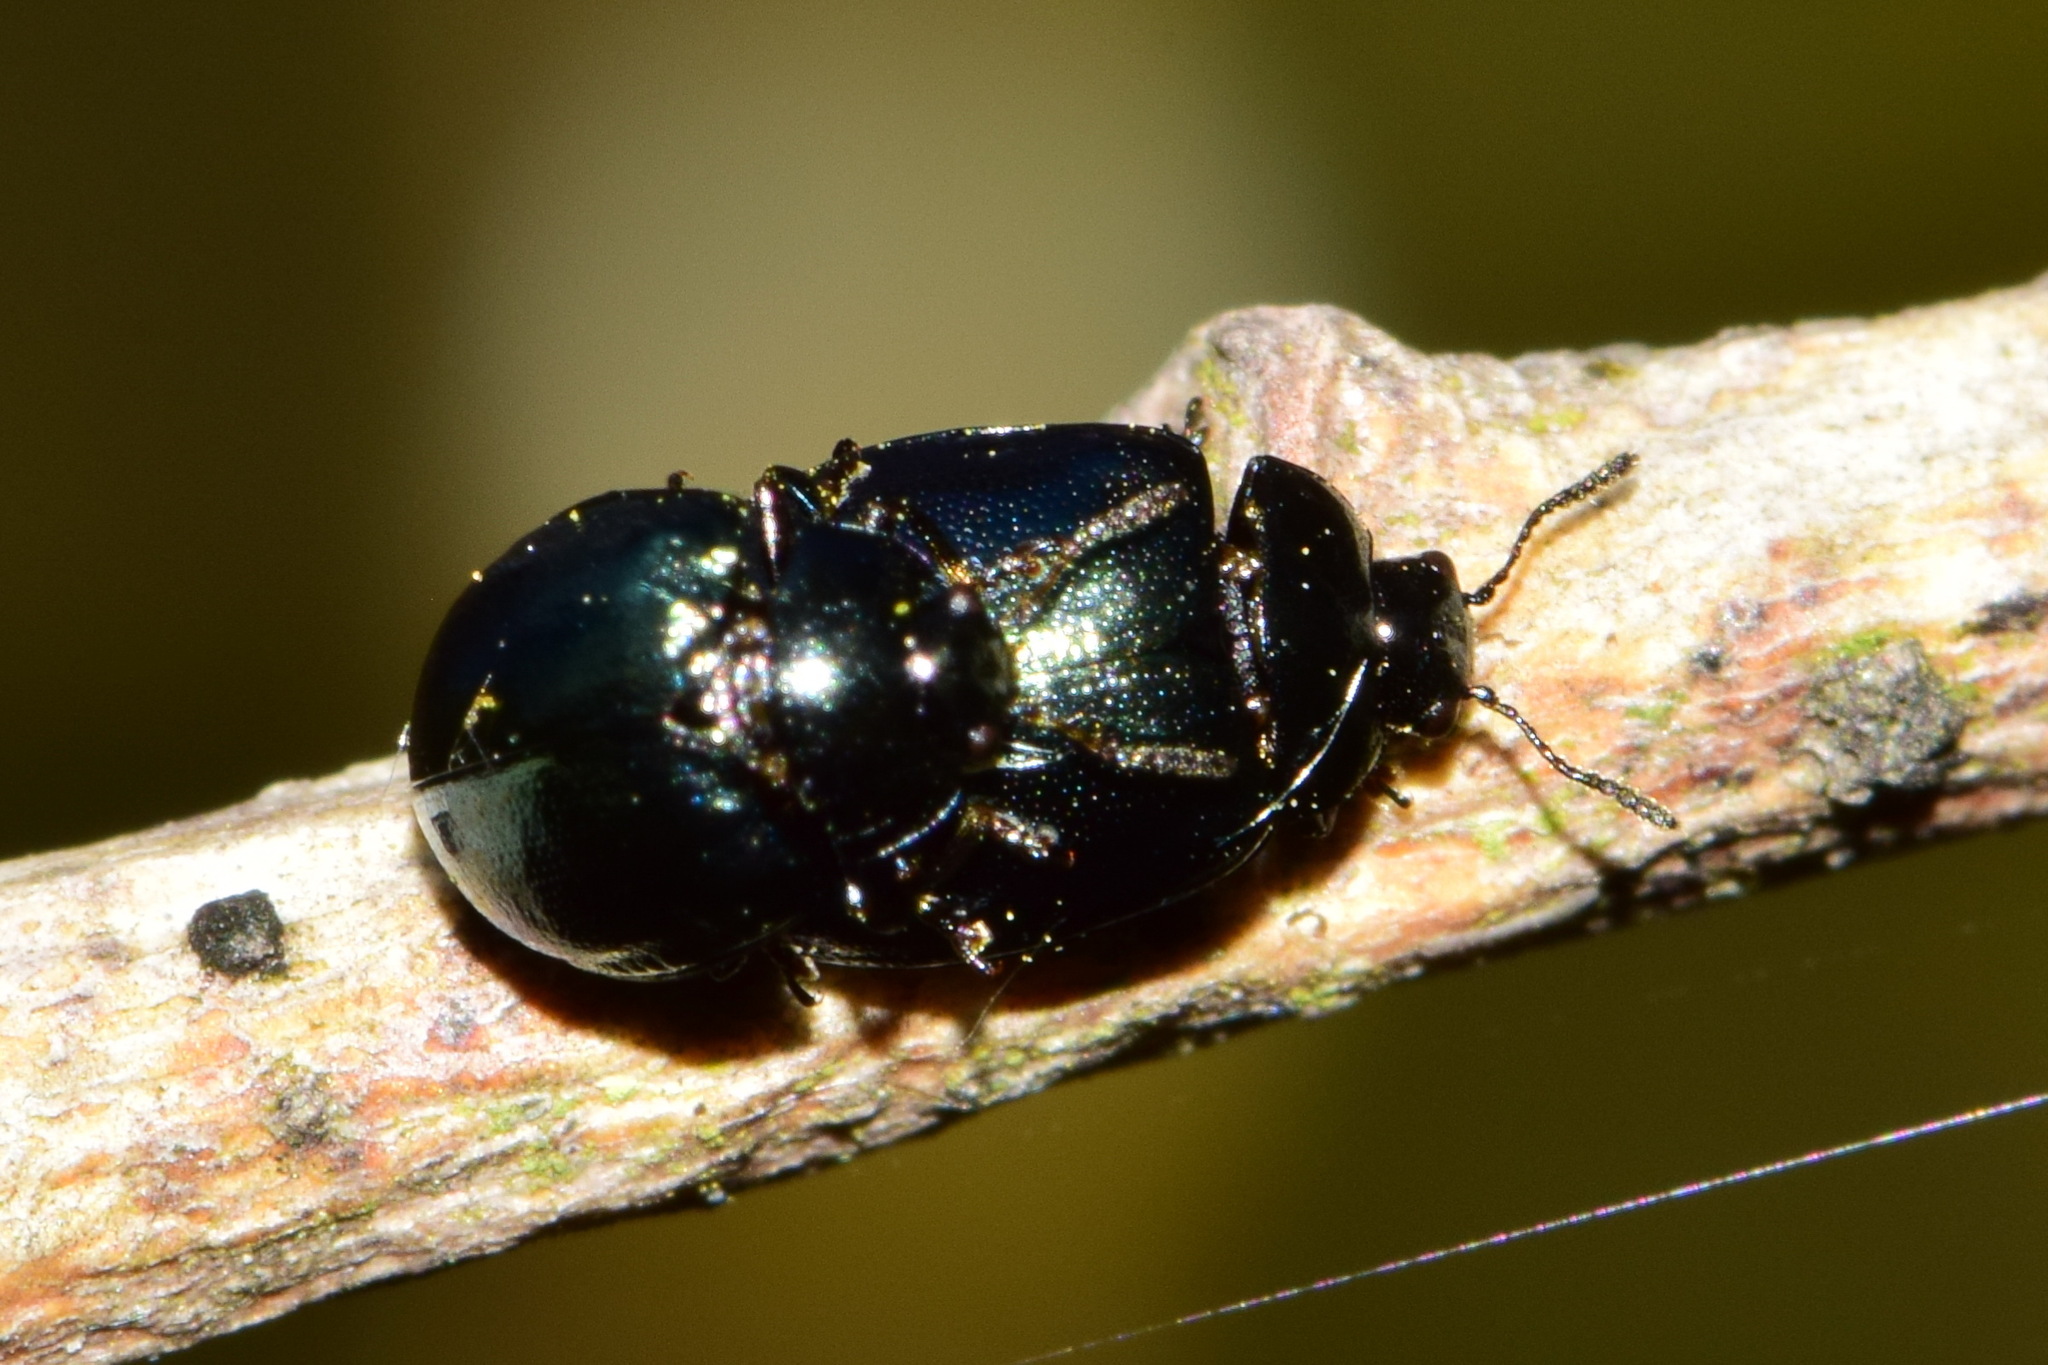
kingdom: Animalia
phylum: Arthropoda
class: Insecta
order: Coleoptera
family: Chrysomelidae
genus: Plagiodera
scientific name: Plagiodera versicolora
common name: Imported willow leaf beetle
